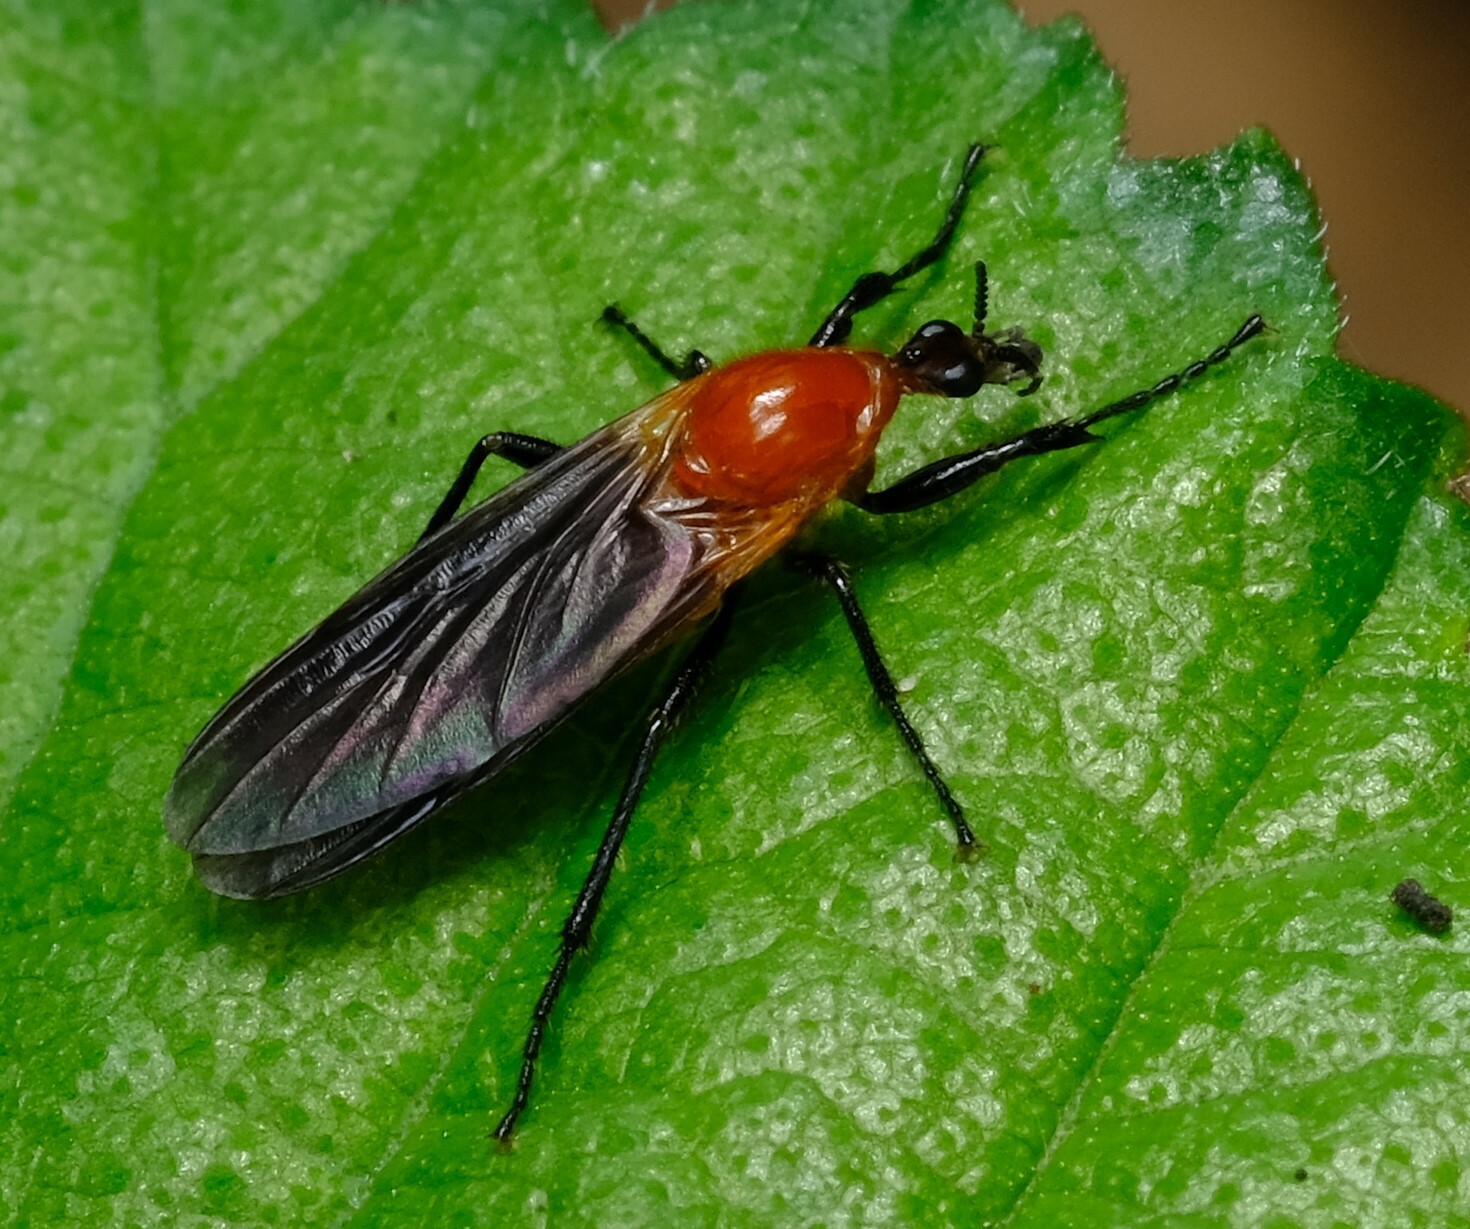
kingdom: Animalia
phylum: Arthropoda
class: Insecta
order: Diptera
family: Bibionidae
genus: Bibio
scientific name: Bibio imitator
